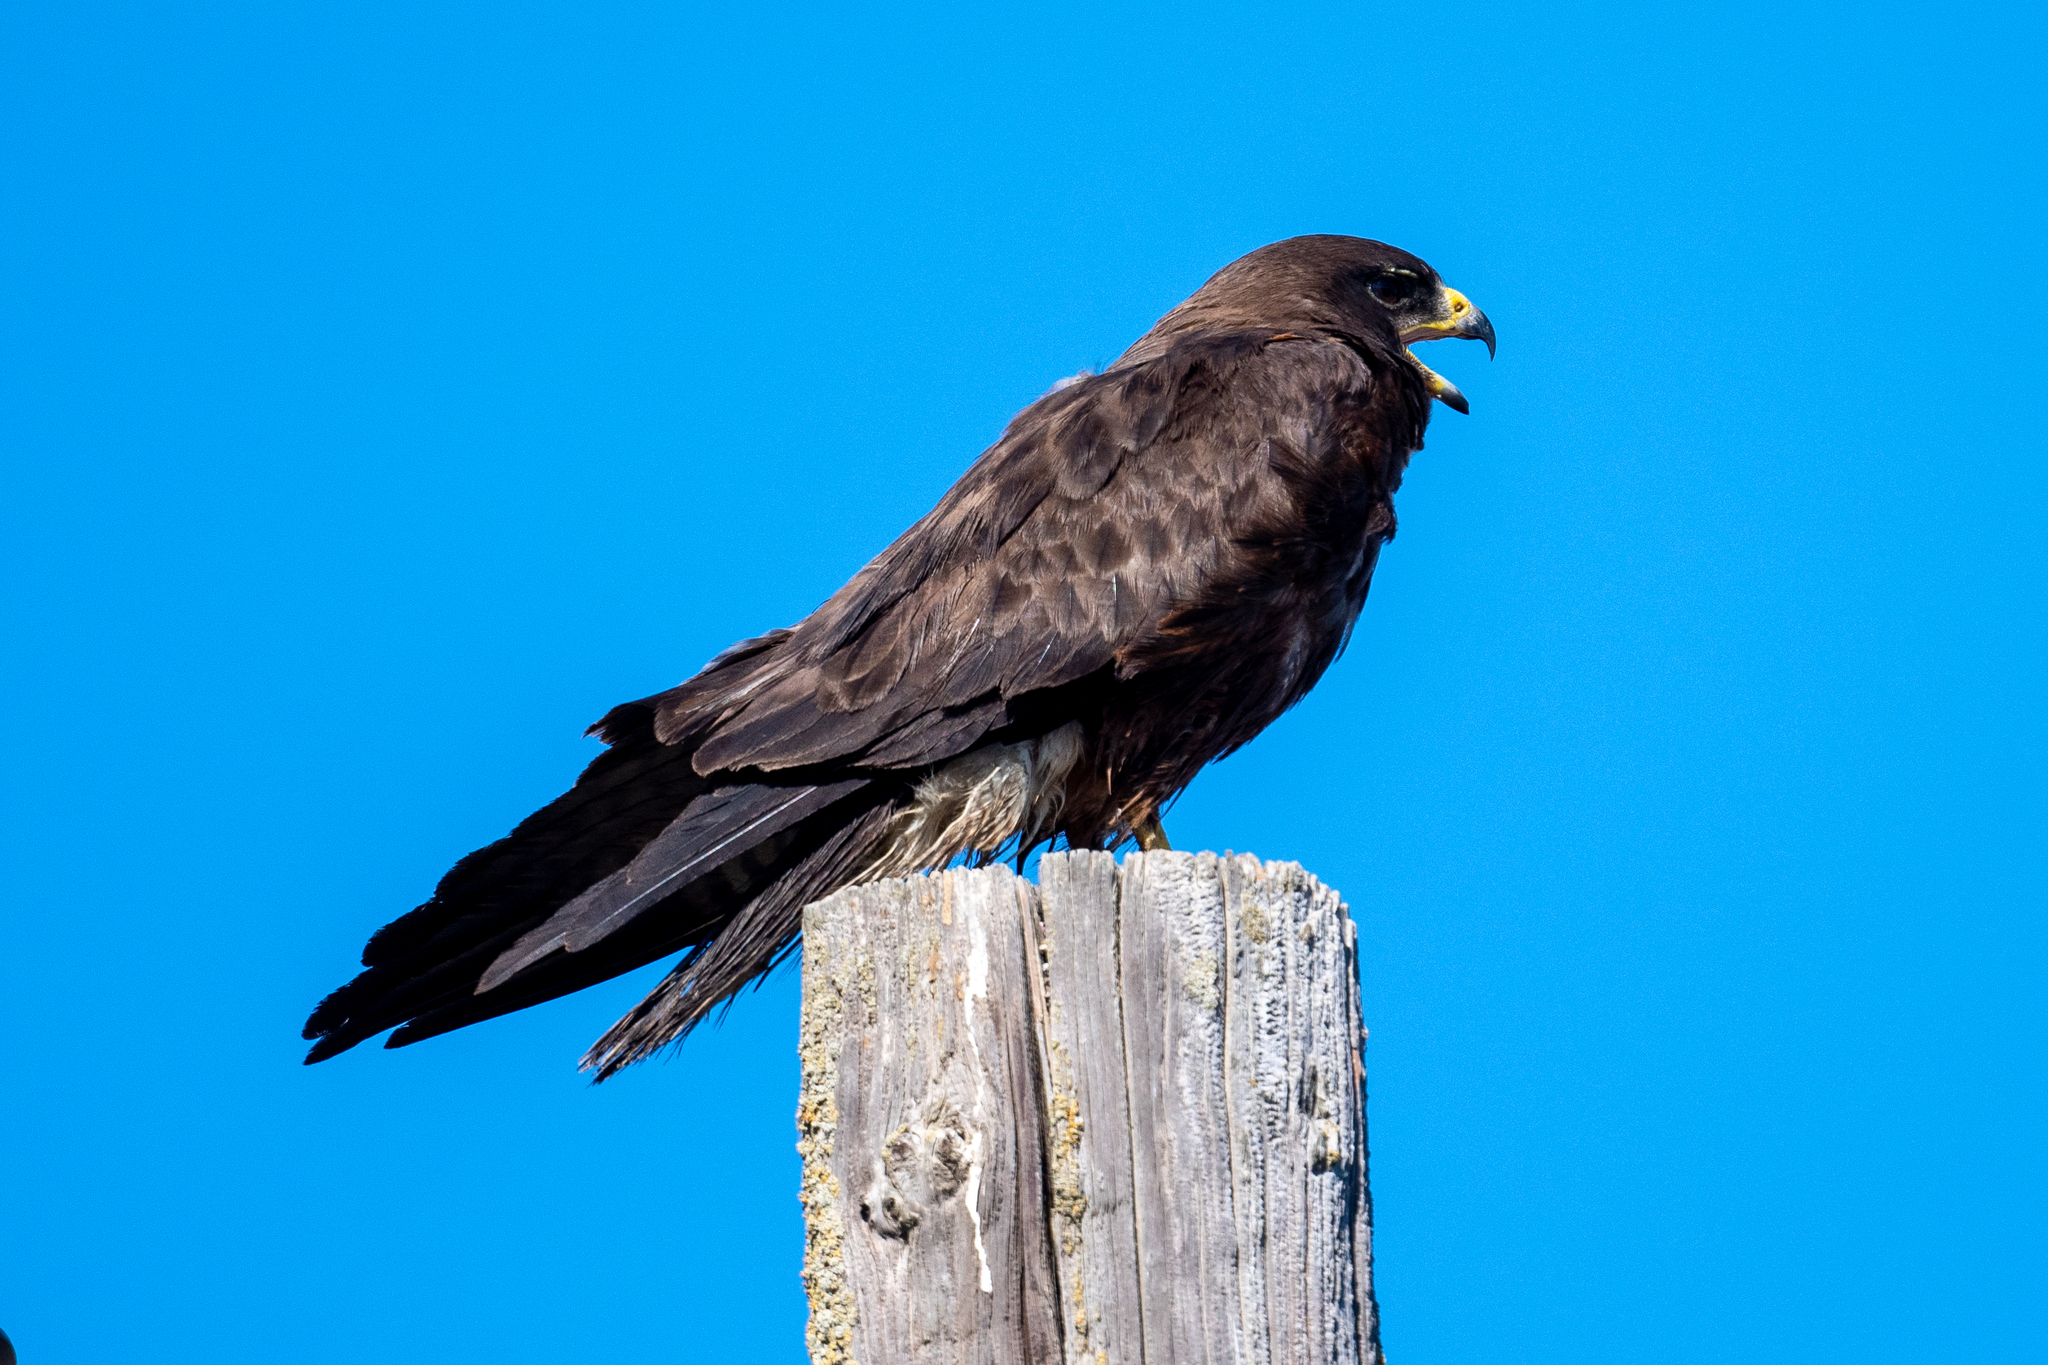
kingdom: Animalia
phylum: Chordata
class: Aves
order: Accipitriformes
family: Accipitridae
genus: Buteo
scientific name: Buteo swainsoni
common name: Swainson's hawk
